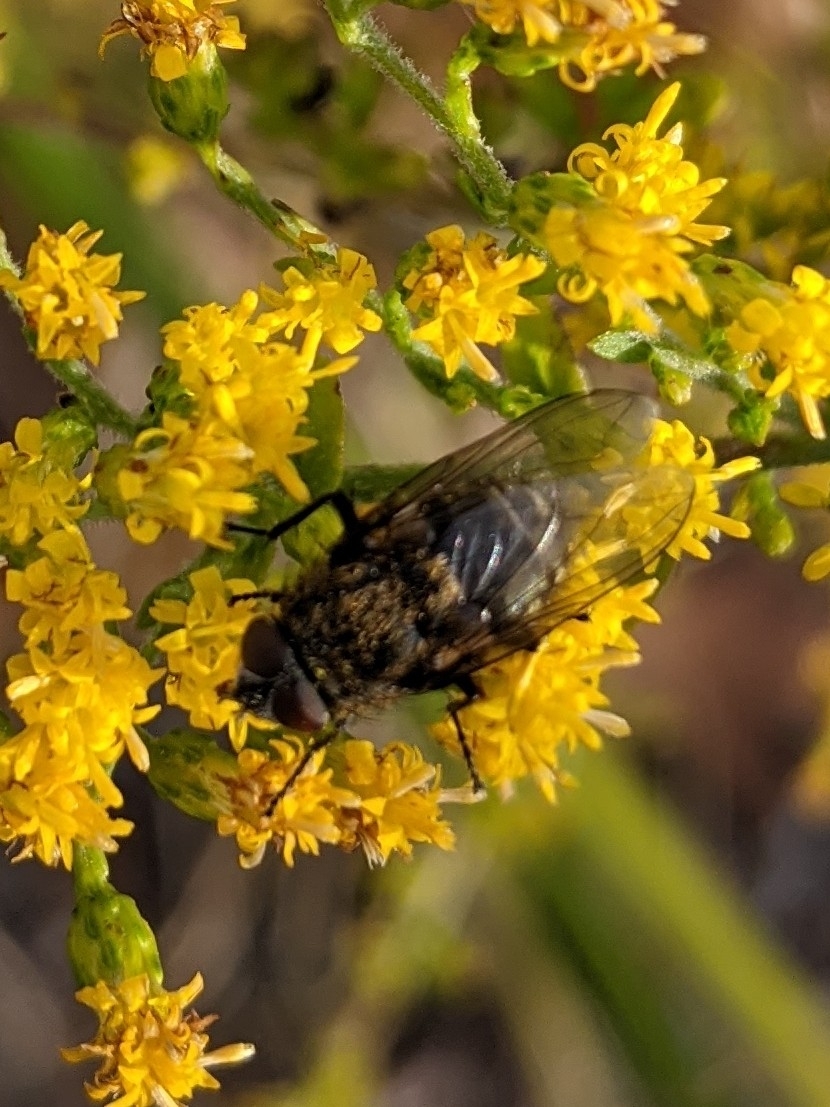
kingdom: Animalia
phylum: Arthropoda
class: Insecta
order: Diptera
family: Polleniidae
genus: Pollenia
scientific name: Pollenia
